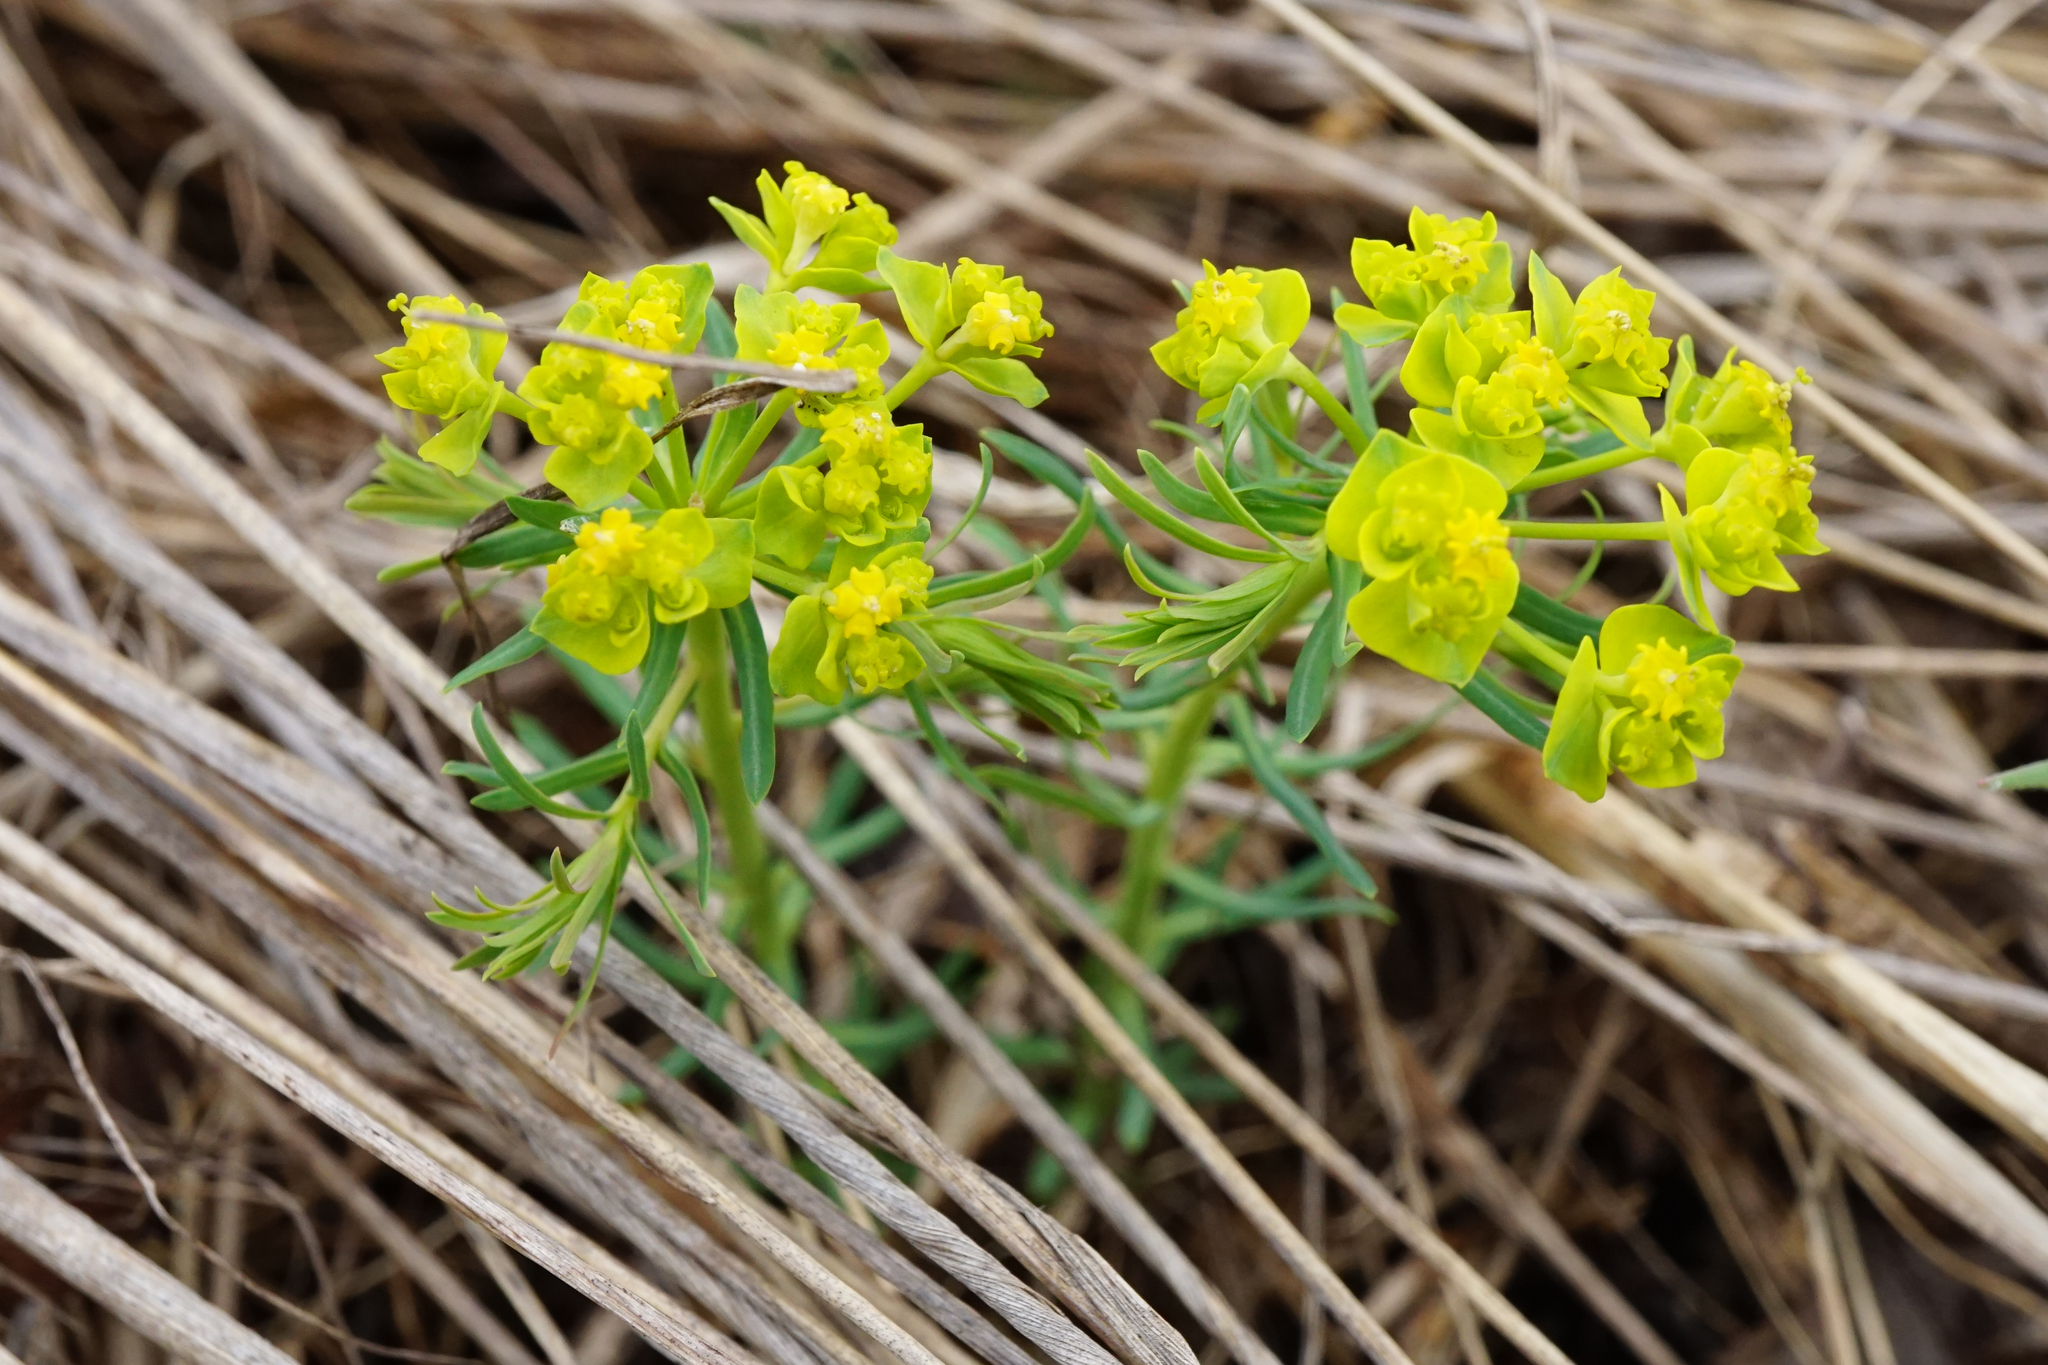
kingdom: Plantae
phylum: Tracheophyta
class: Magnoliopsida
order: Malpighiales
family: Euphorbiaceae
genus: Euphorbia
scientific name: Euphorbia cyparissias
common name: Cypress spurge
